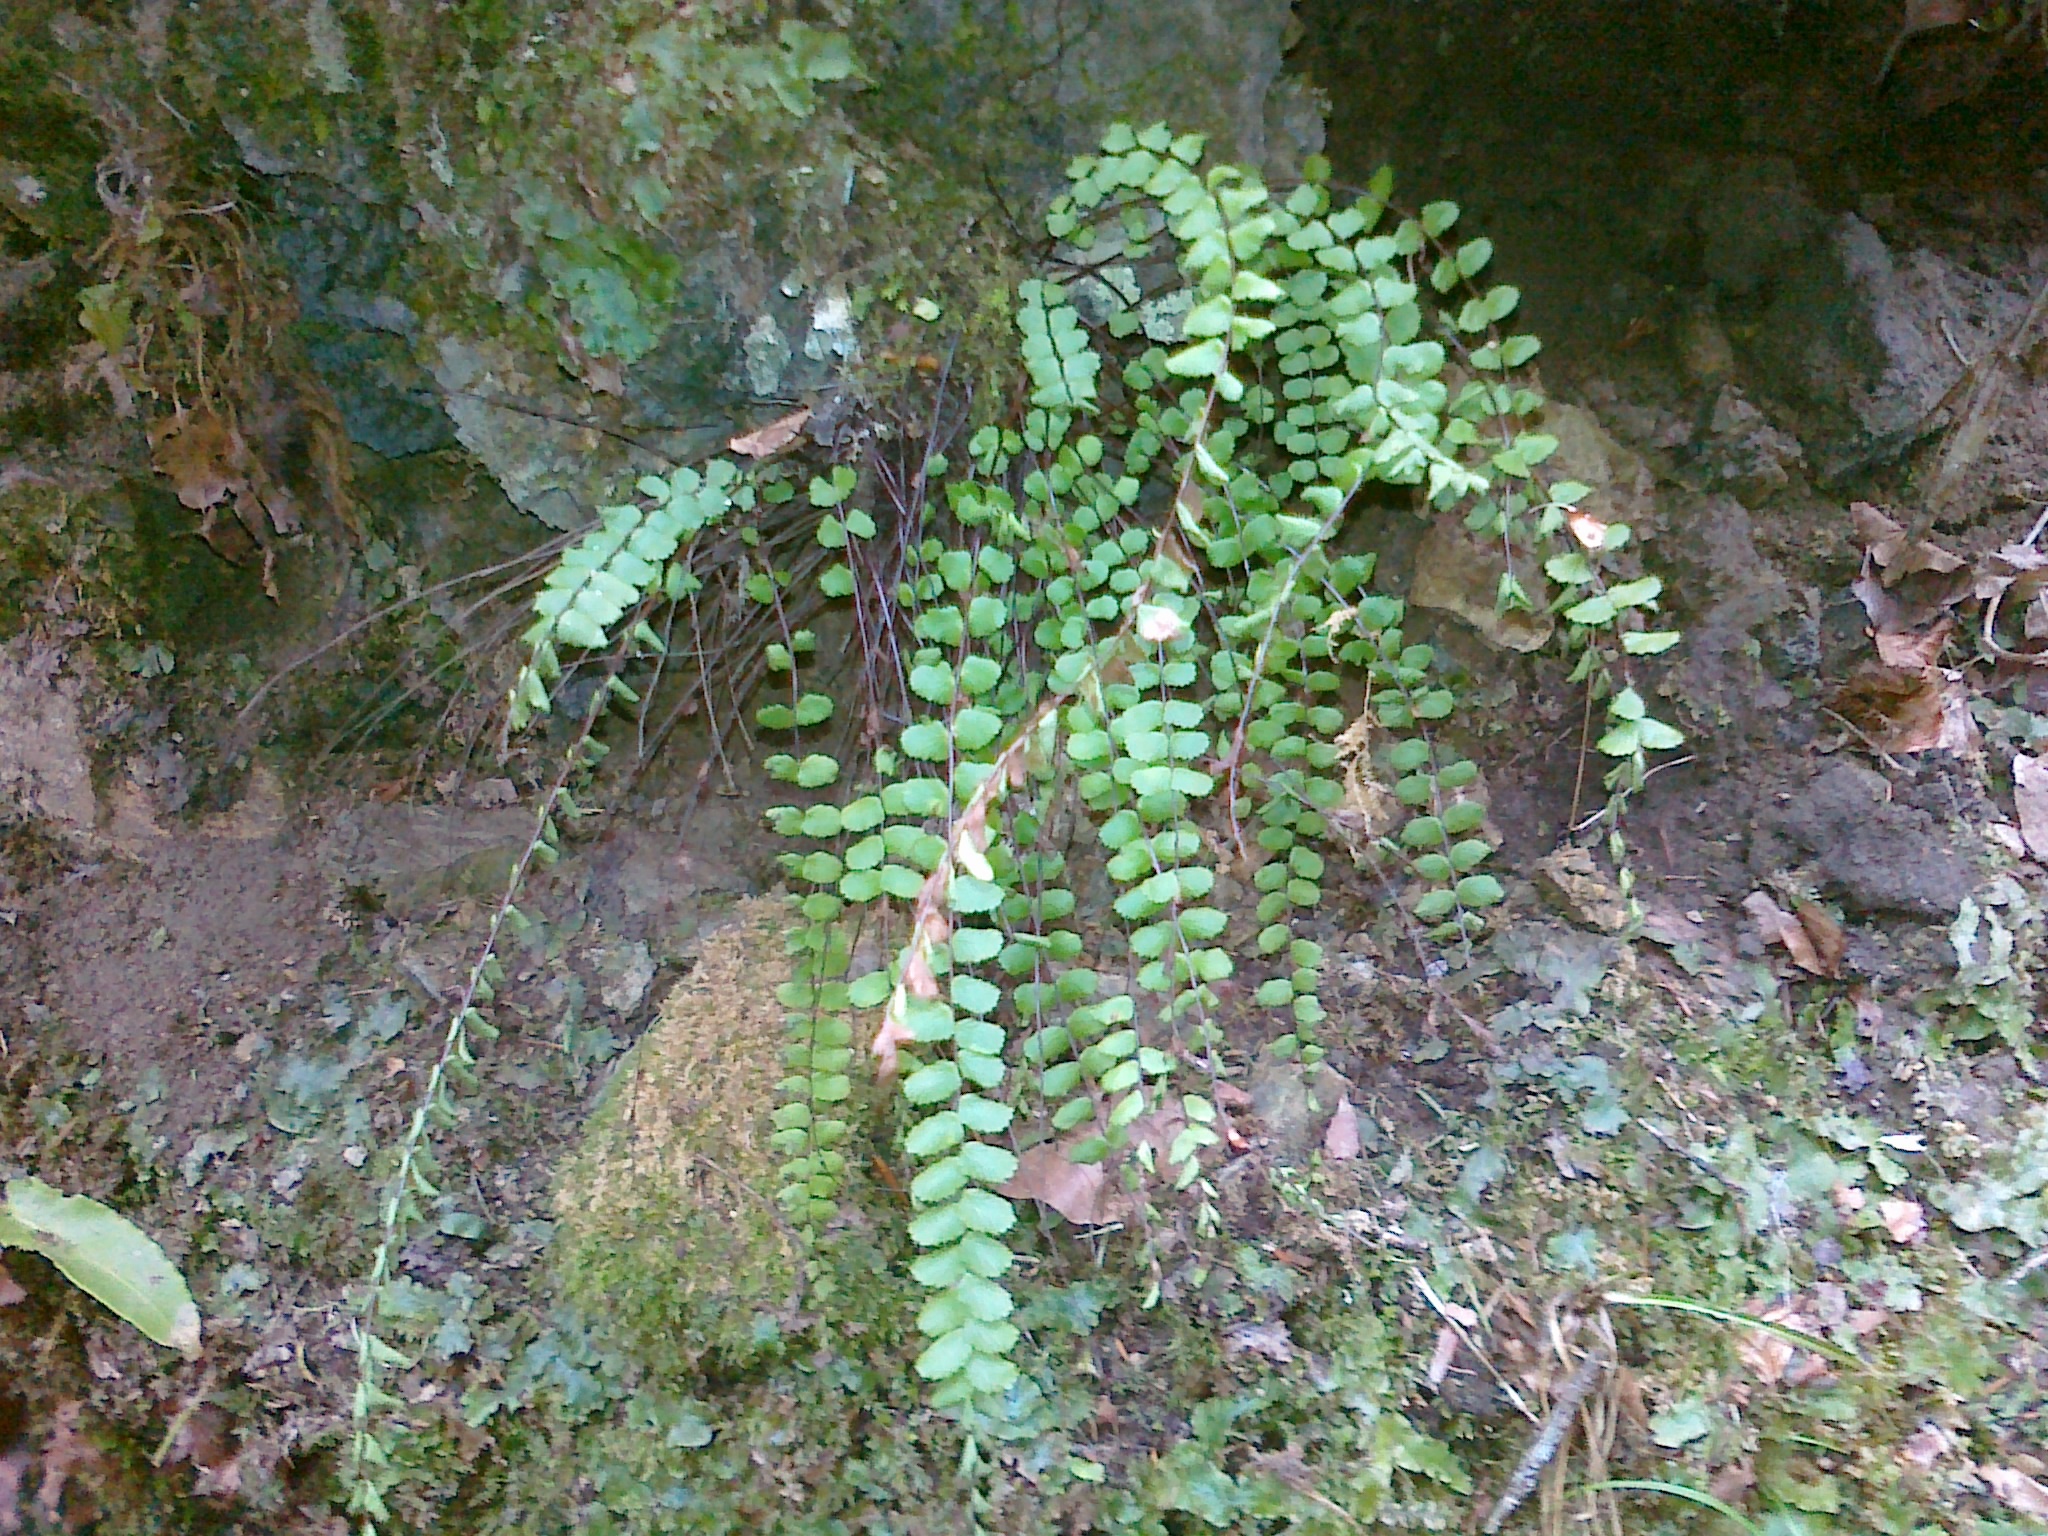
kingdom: Plantae
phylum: Tracheophyta
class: Polypodiopsida
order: Polypodiales
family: Aspleniaceae
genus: Asplenium
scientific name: Asplenium quadrivalens
